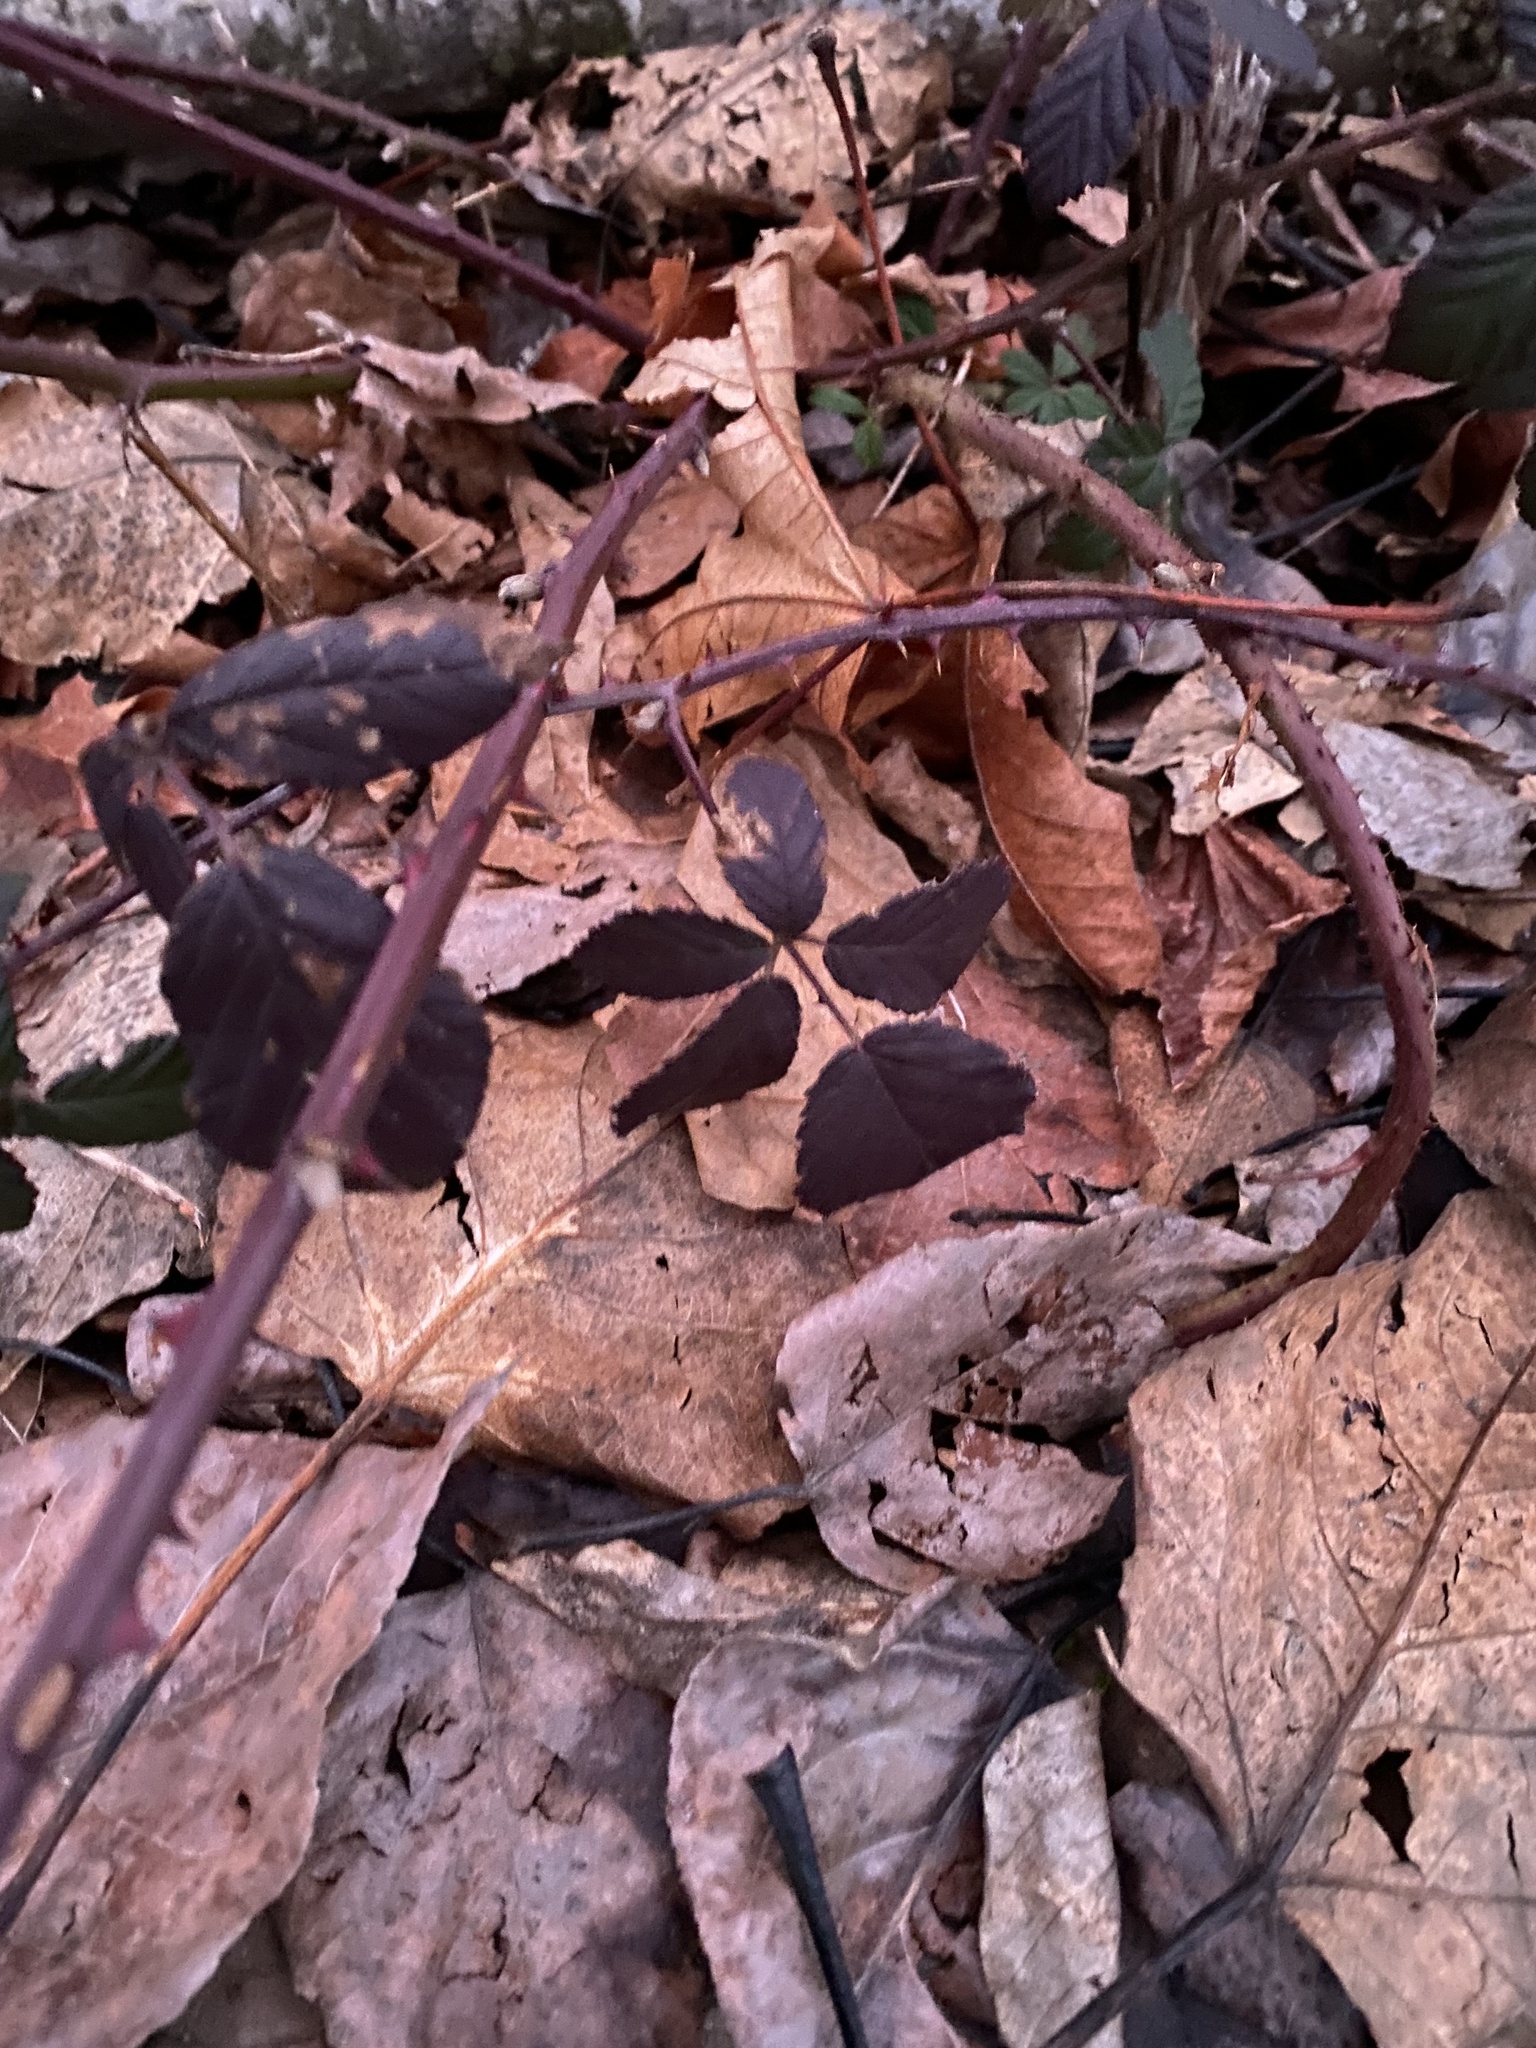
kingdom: Plantae
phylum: Tracheophyta
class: Magnoliopsida
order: Rosales
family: Rosaceae
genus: Rubus
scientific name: Rubus bifrons
